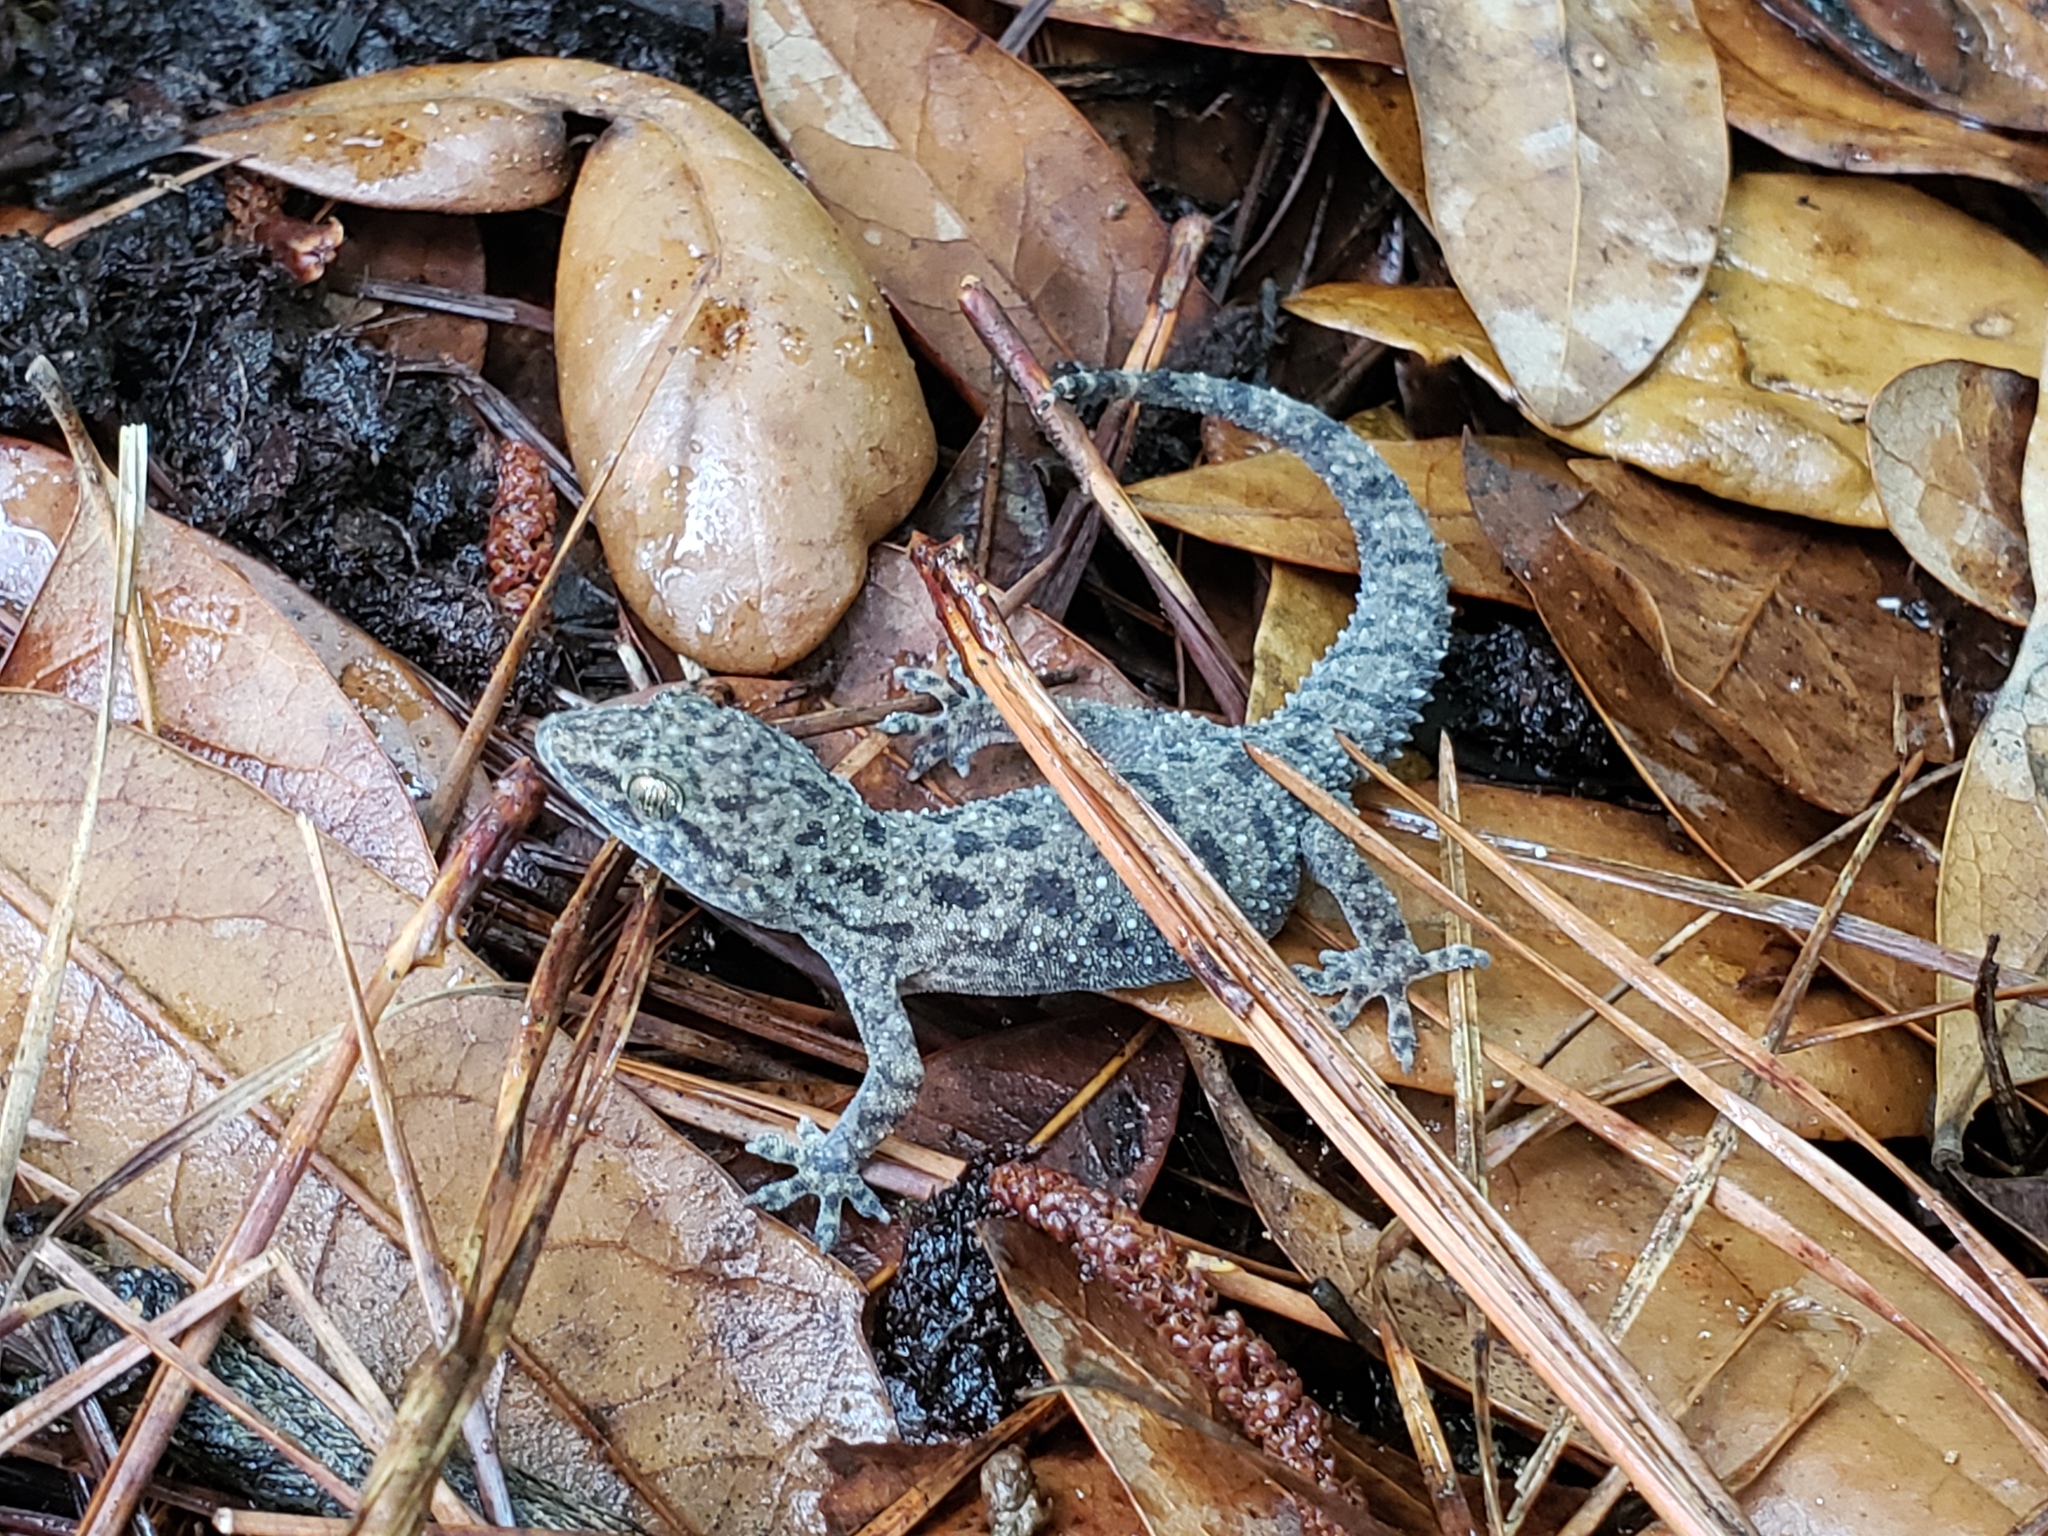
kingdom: Animalia
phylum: Chordata
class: Squamata
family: Gekkonidae
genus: Hemidactylus
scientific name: Hemidactylus parvimaculatus
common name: Spotted house gecko
